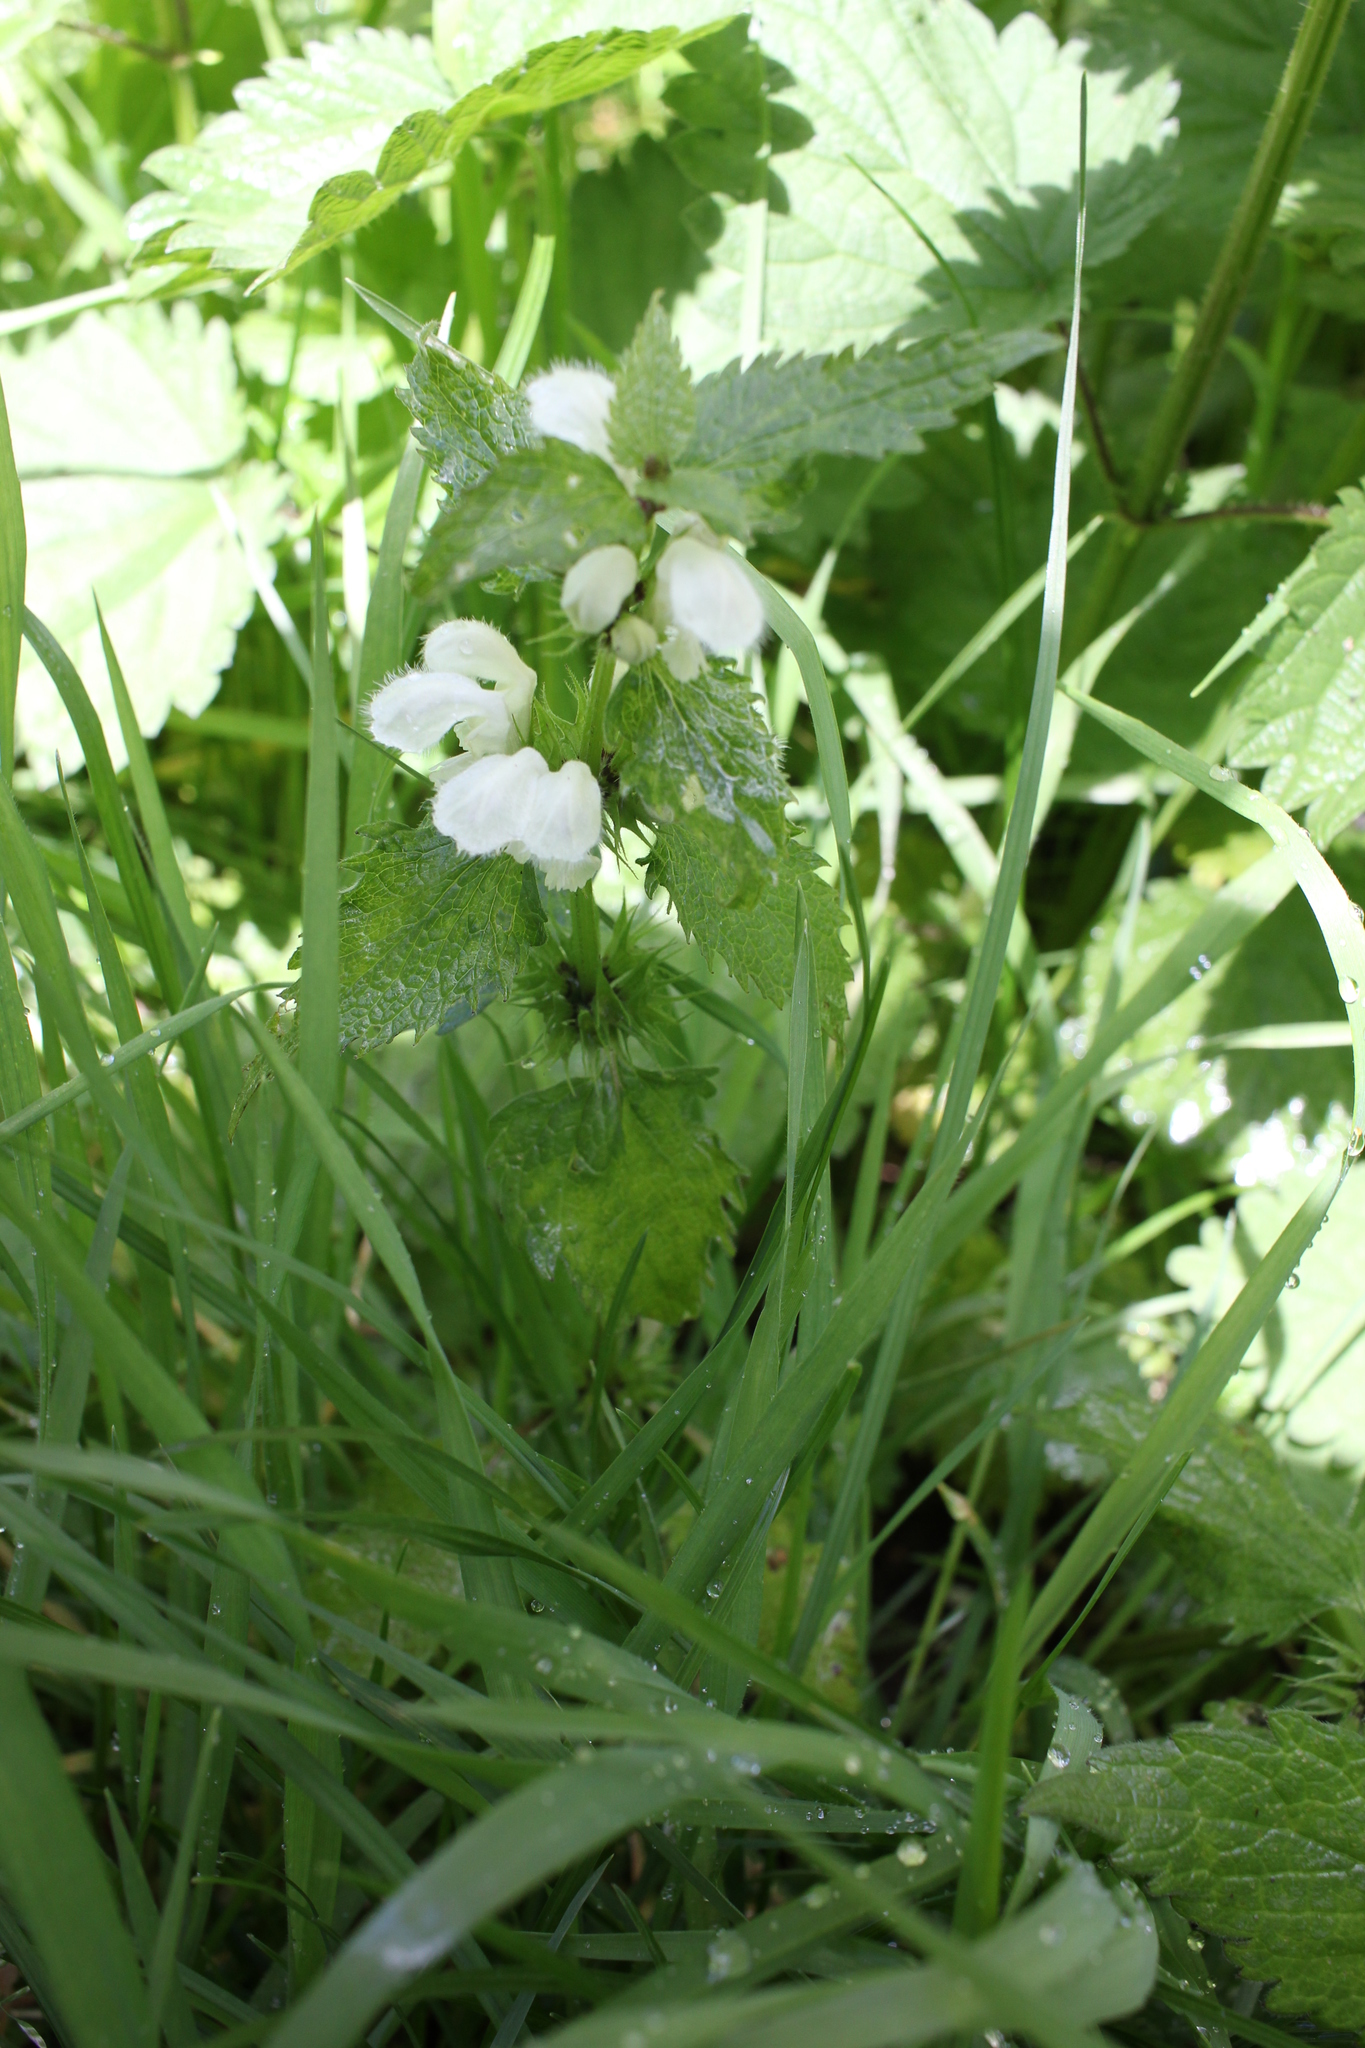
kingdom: Plantae
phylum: Tracheophyta
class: Magnoliopsida
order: Lamiales
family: Lamiaceae
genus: Lamium
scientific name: Lamium album
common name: White dead-nettle
